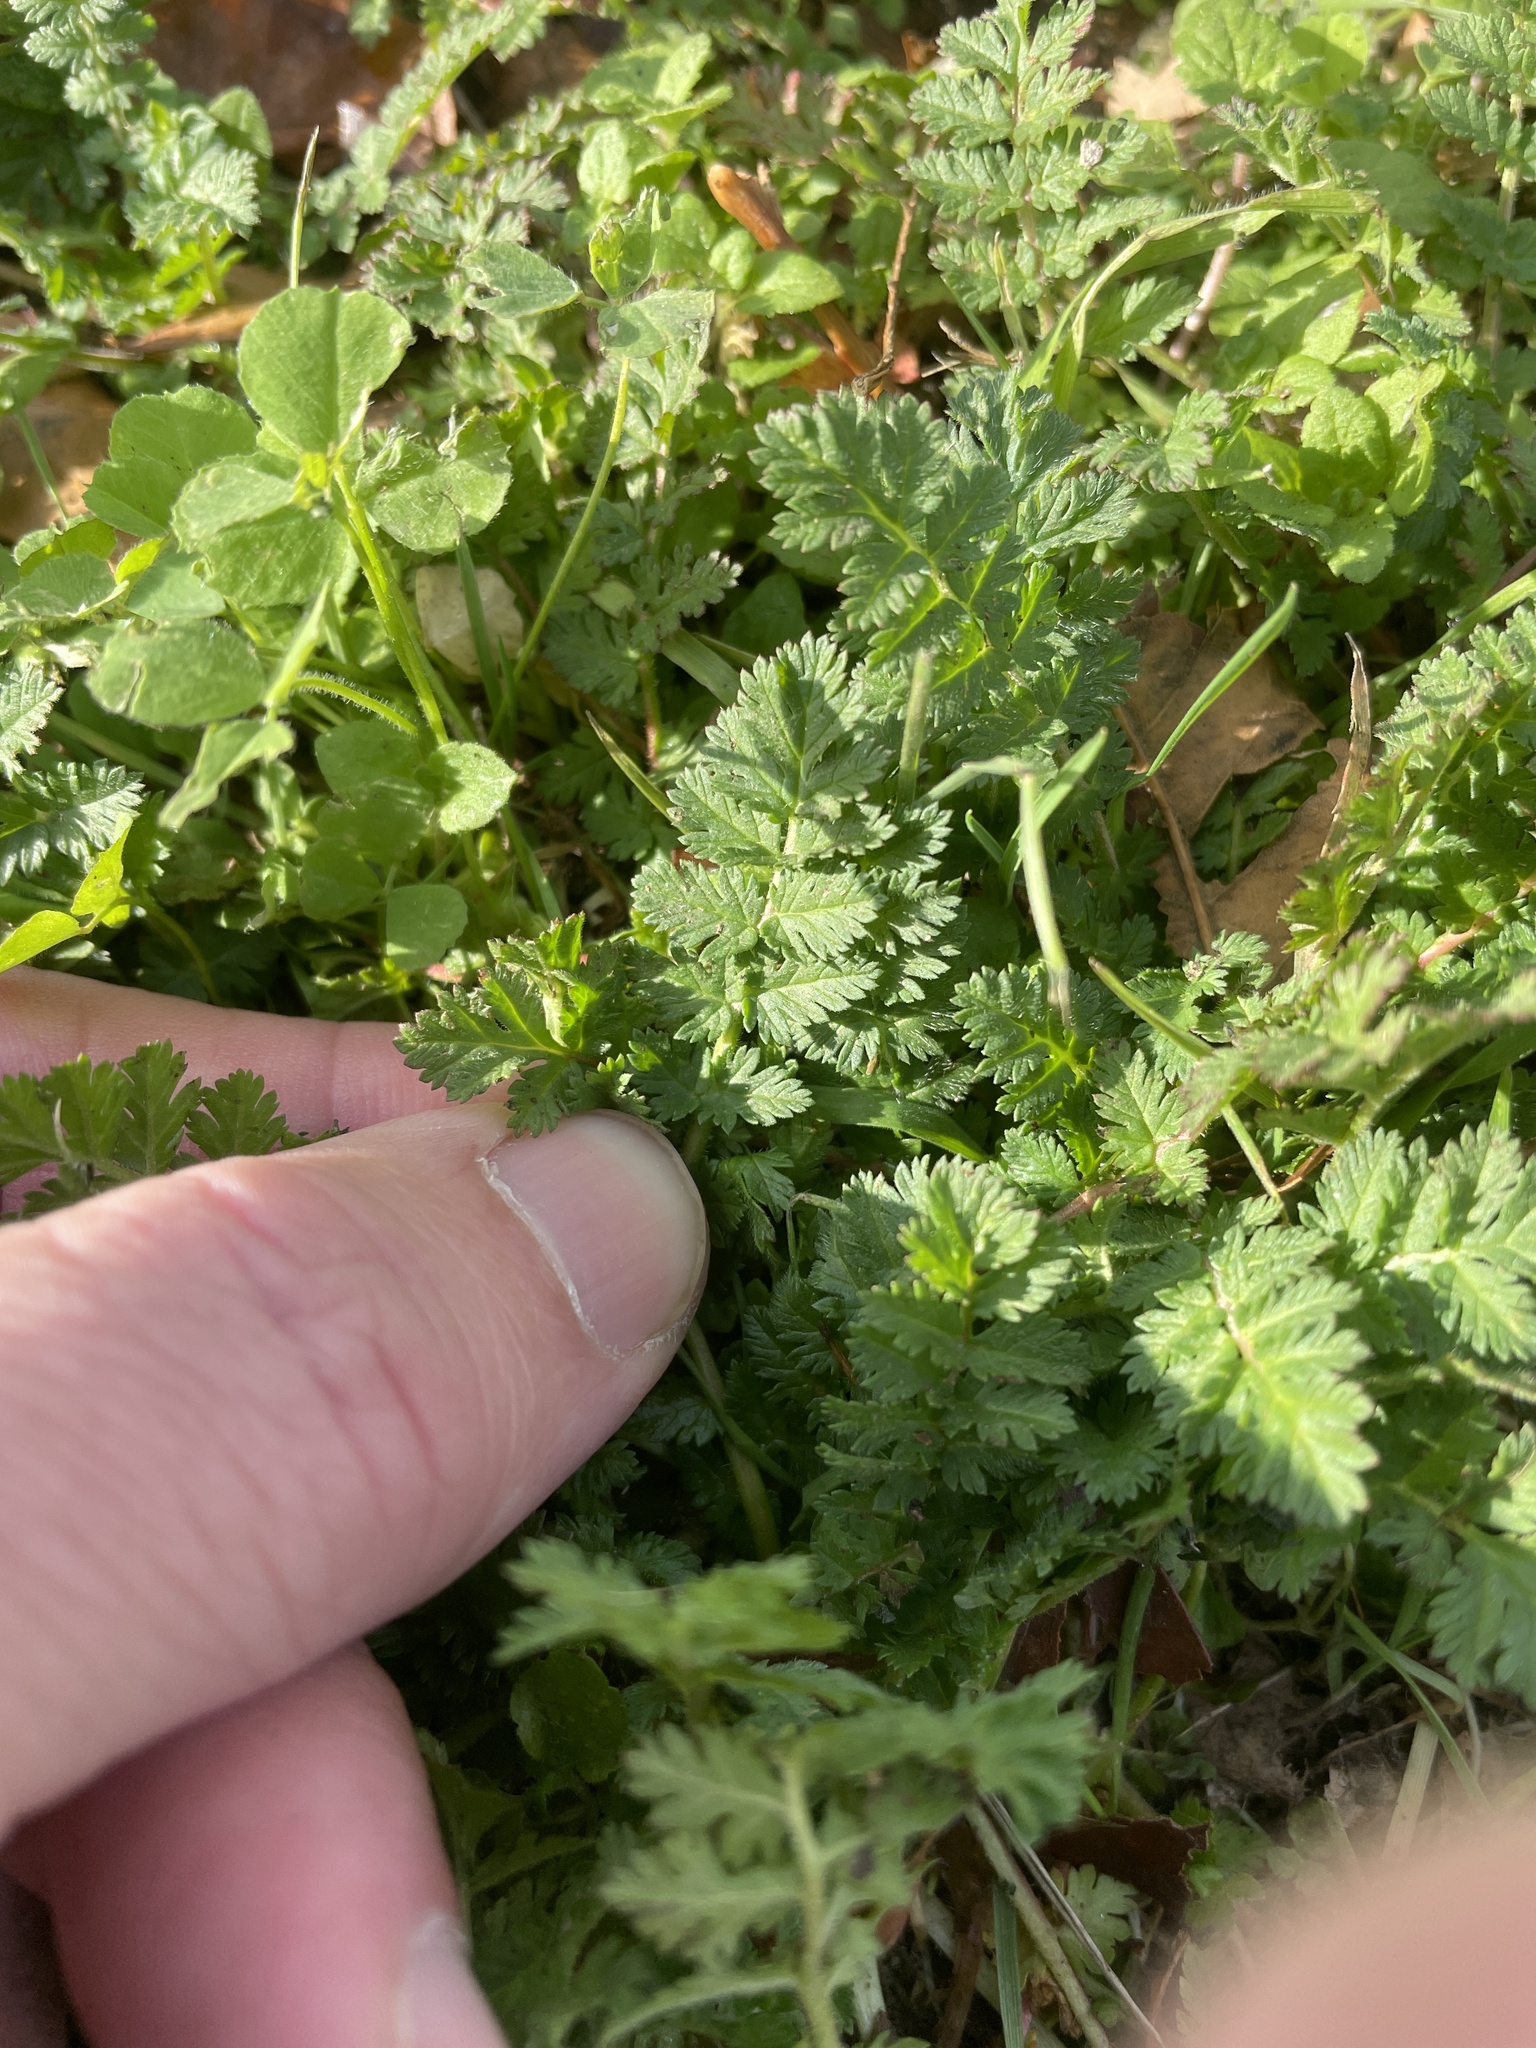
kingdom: Plantae
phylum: Tracheophyta
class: Magnoliopsida
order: Geraniales
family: Geraniaceae
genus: Erodium
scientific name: Erodium cicutarium
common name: Common stork's-bill
